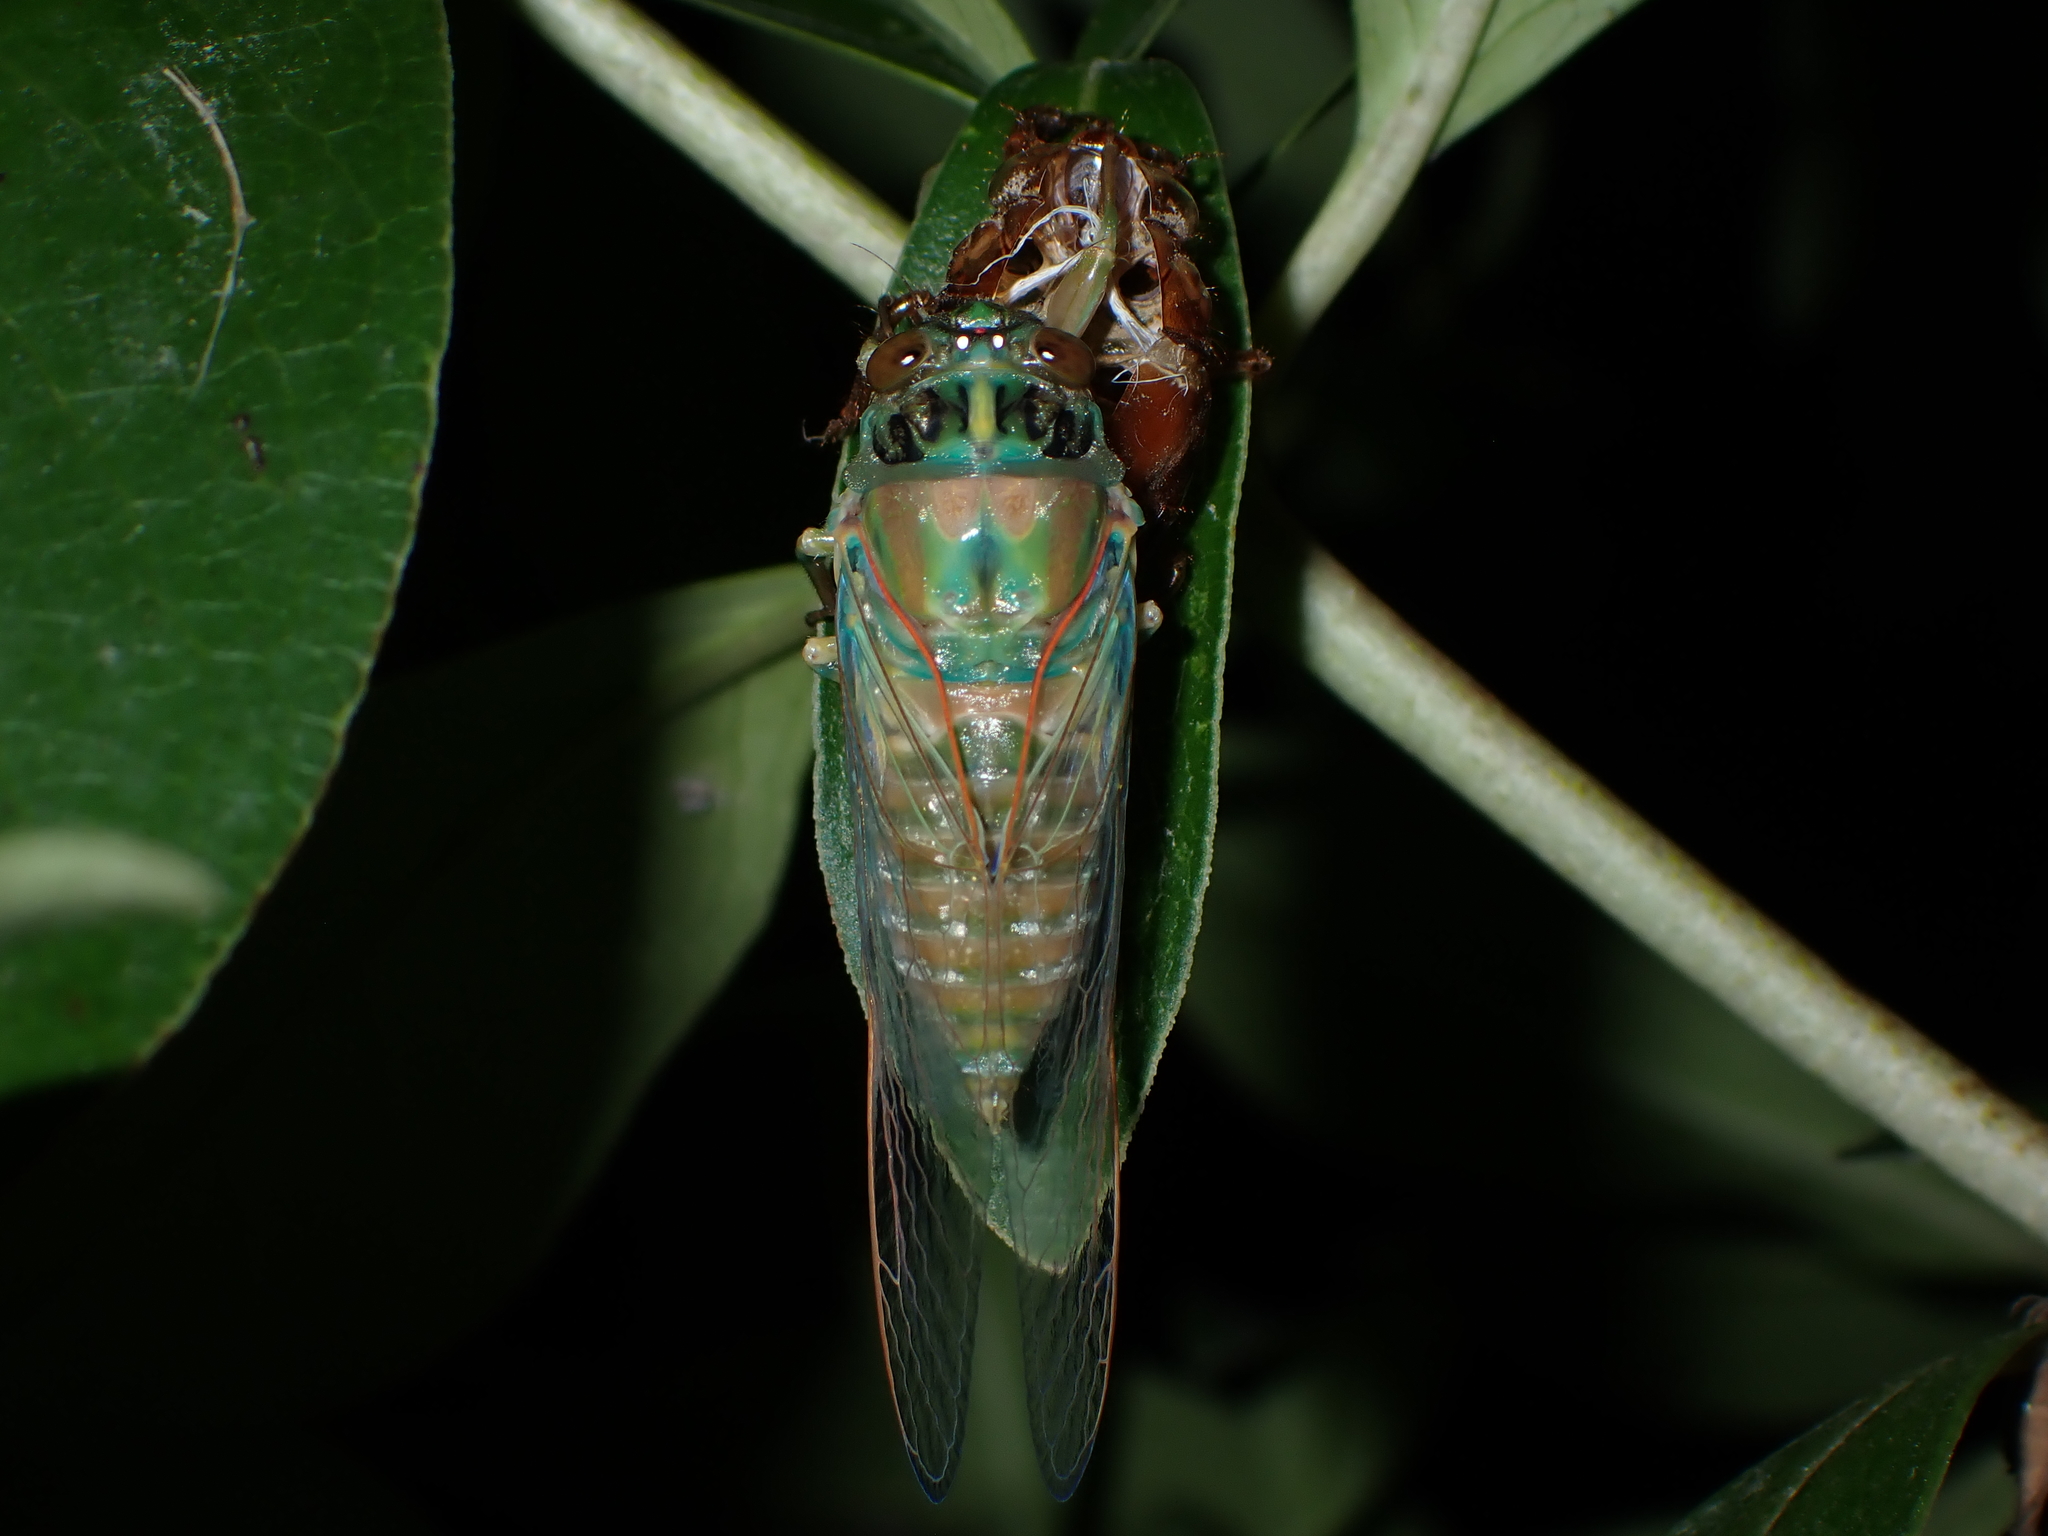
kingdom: Animalia
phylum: Arthropoda
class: Insecta
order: Hemiptera
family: Cicadidae
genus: Amphipsalta
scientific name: Amphipsalta zelandica
